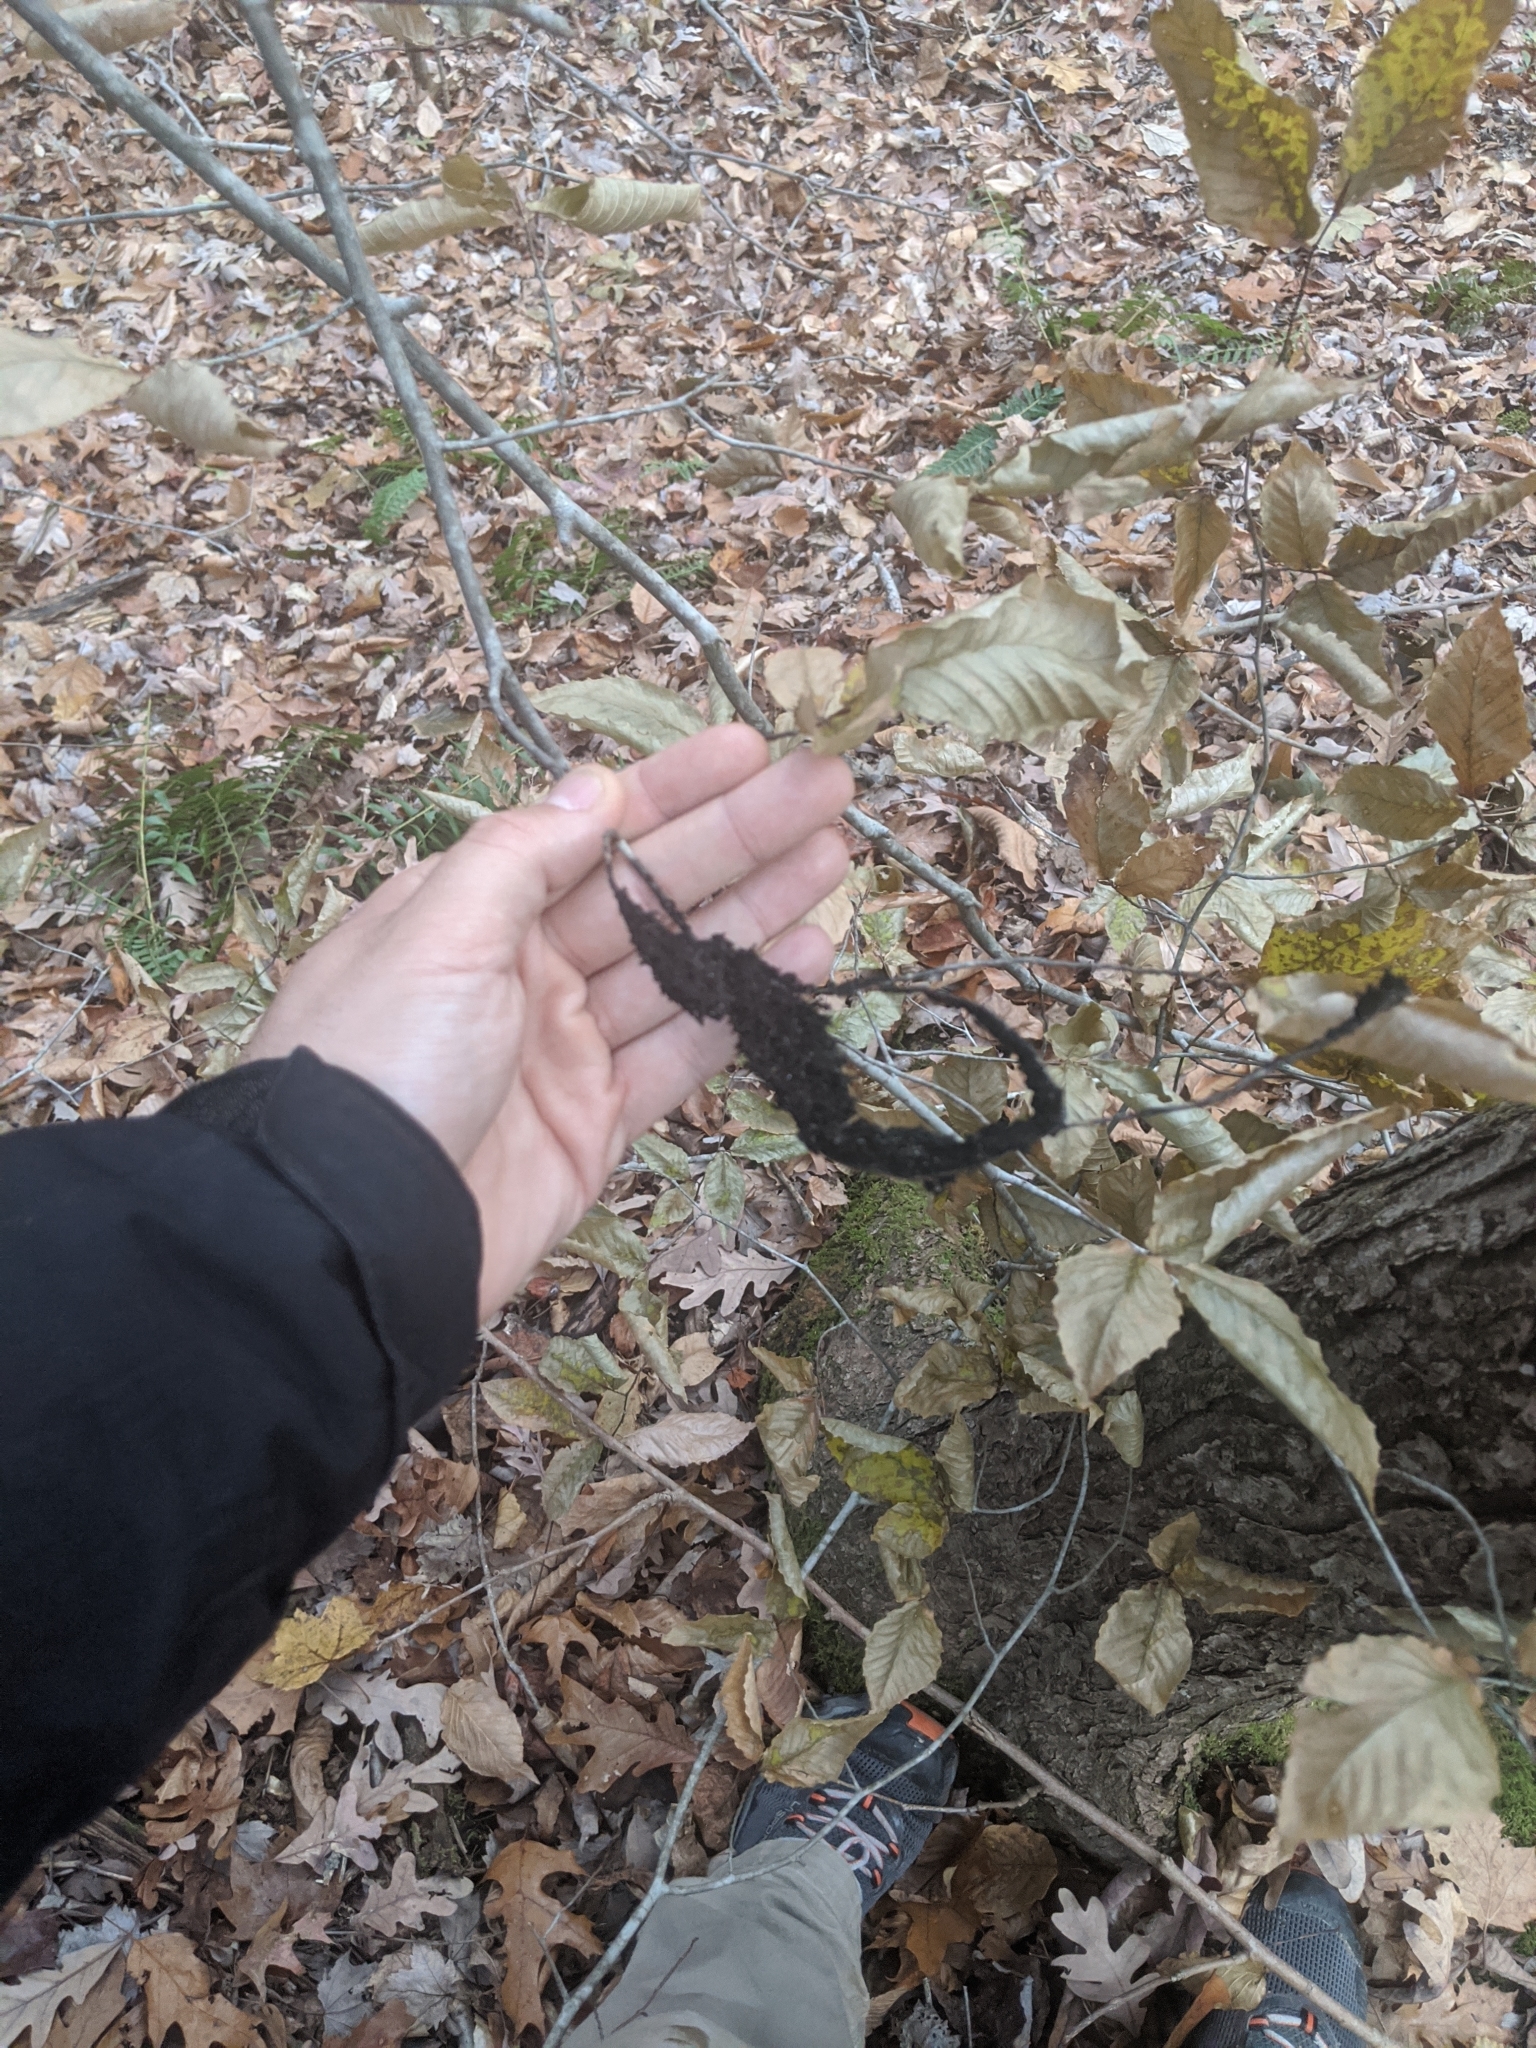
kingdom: Fungi
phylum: Ascomycota
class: Dothideomycetes
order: Capnodiales
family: Capnodiaceae
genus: Scorias
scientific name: Scorias spongiosa
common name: Black sooty mold
